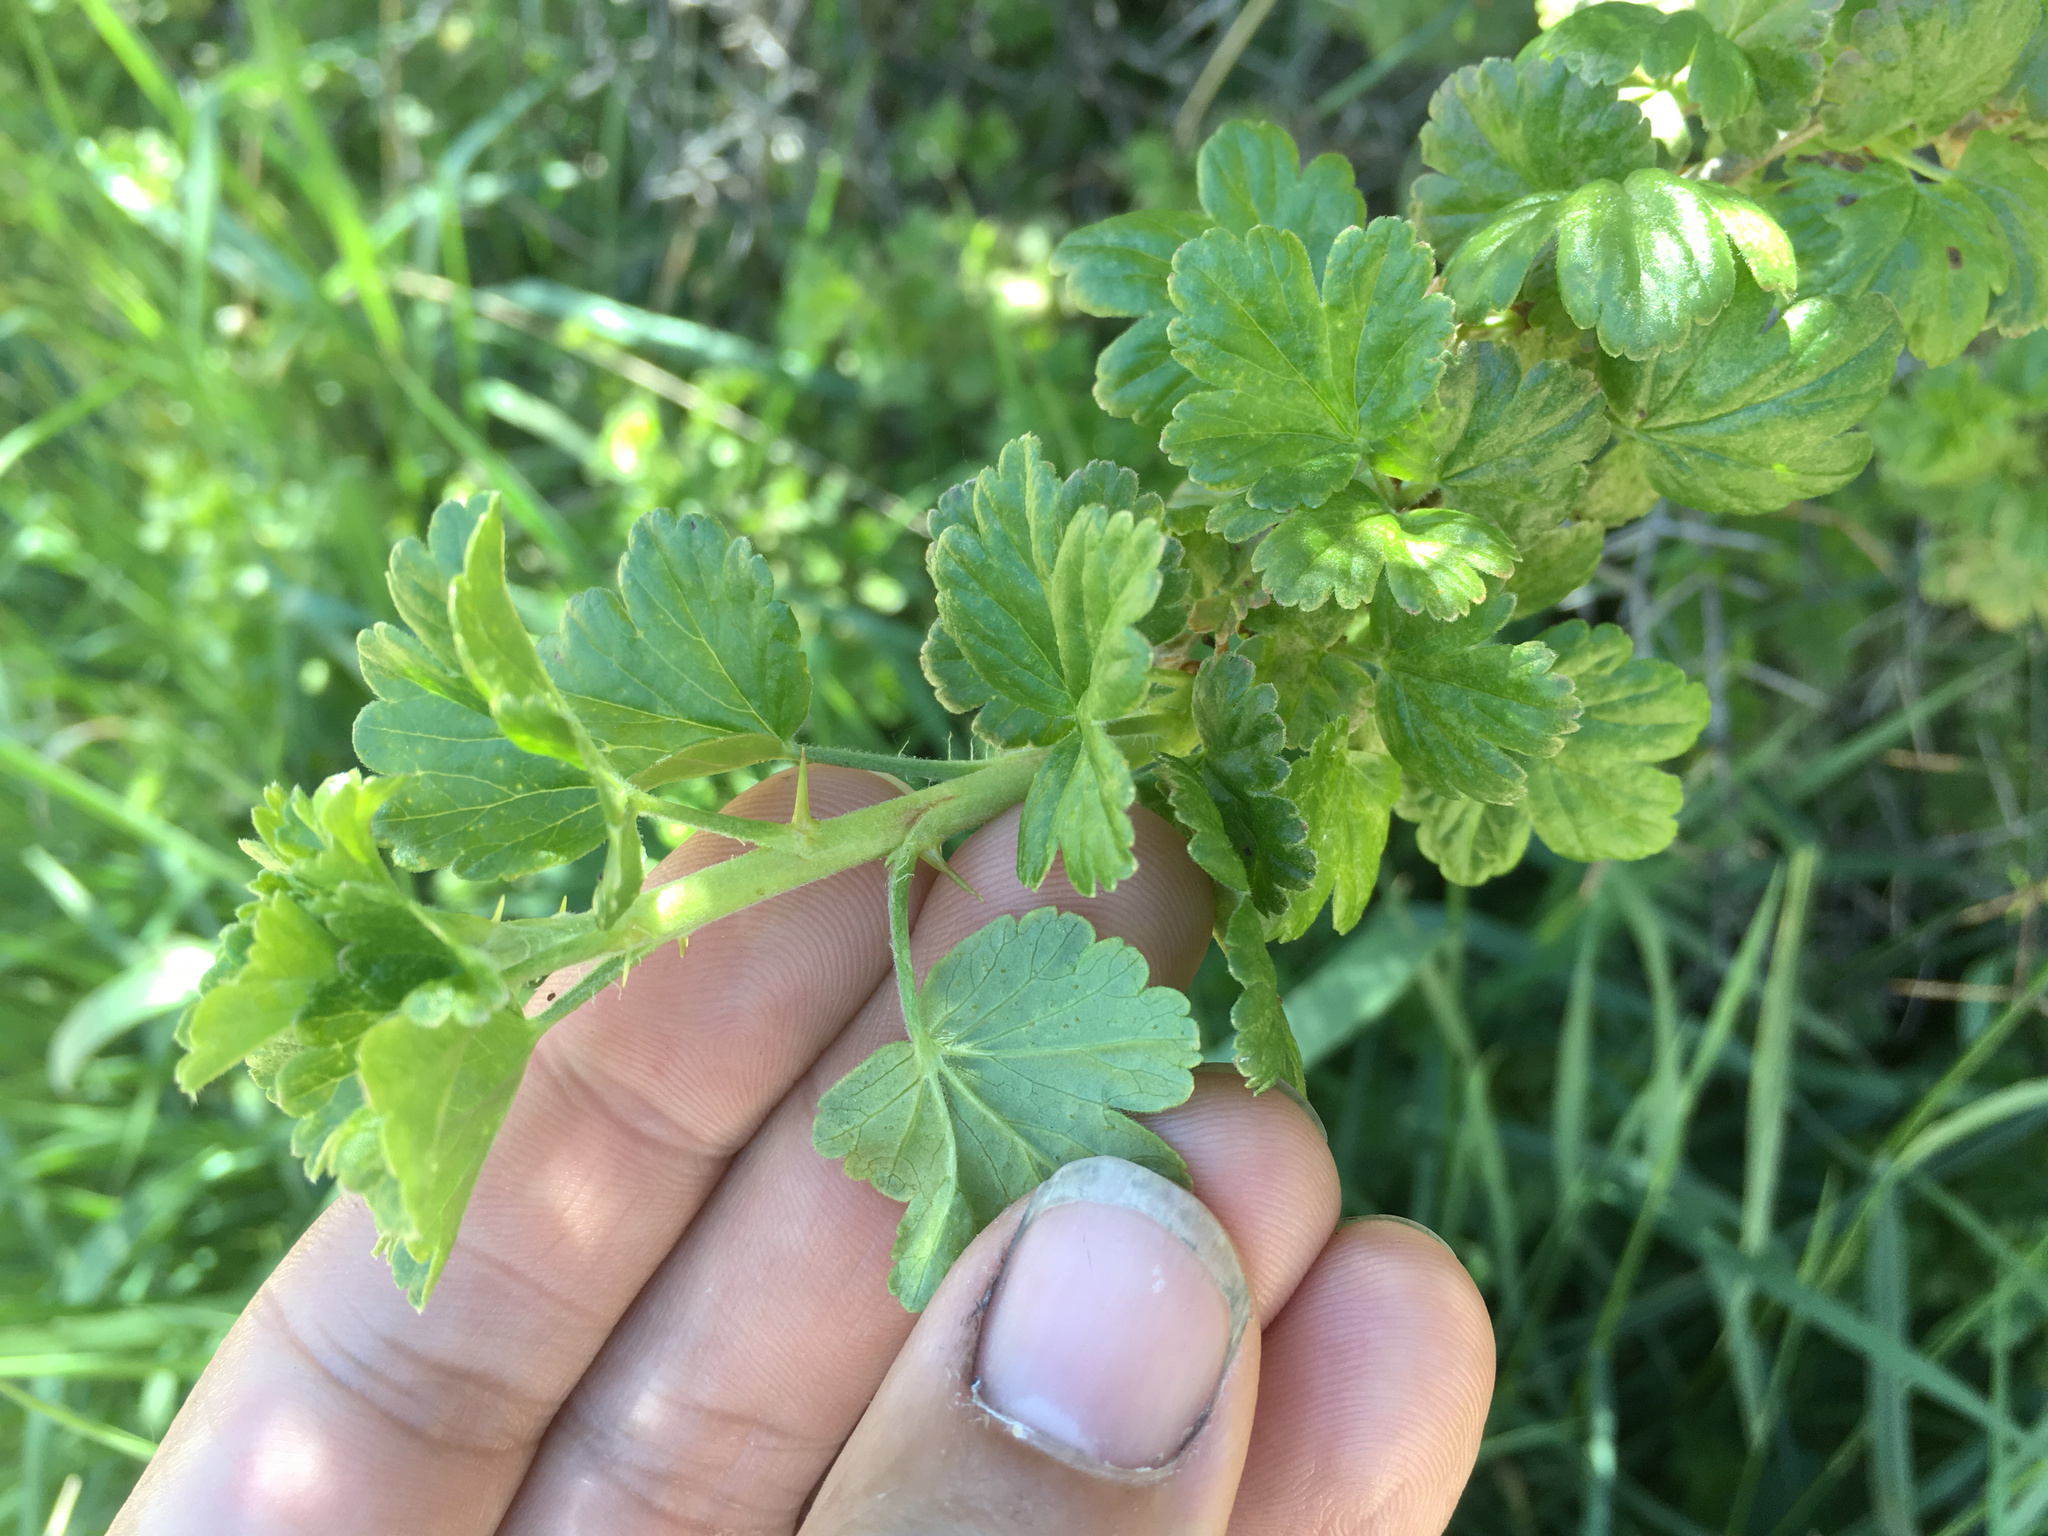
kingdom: Plantae
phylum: Tracheophyta
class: Magnoliopsida
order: Saxifragales
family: Grossulariaceae
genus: Ribes
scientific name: Ribes uva-crispa
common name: Gooseberry
